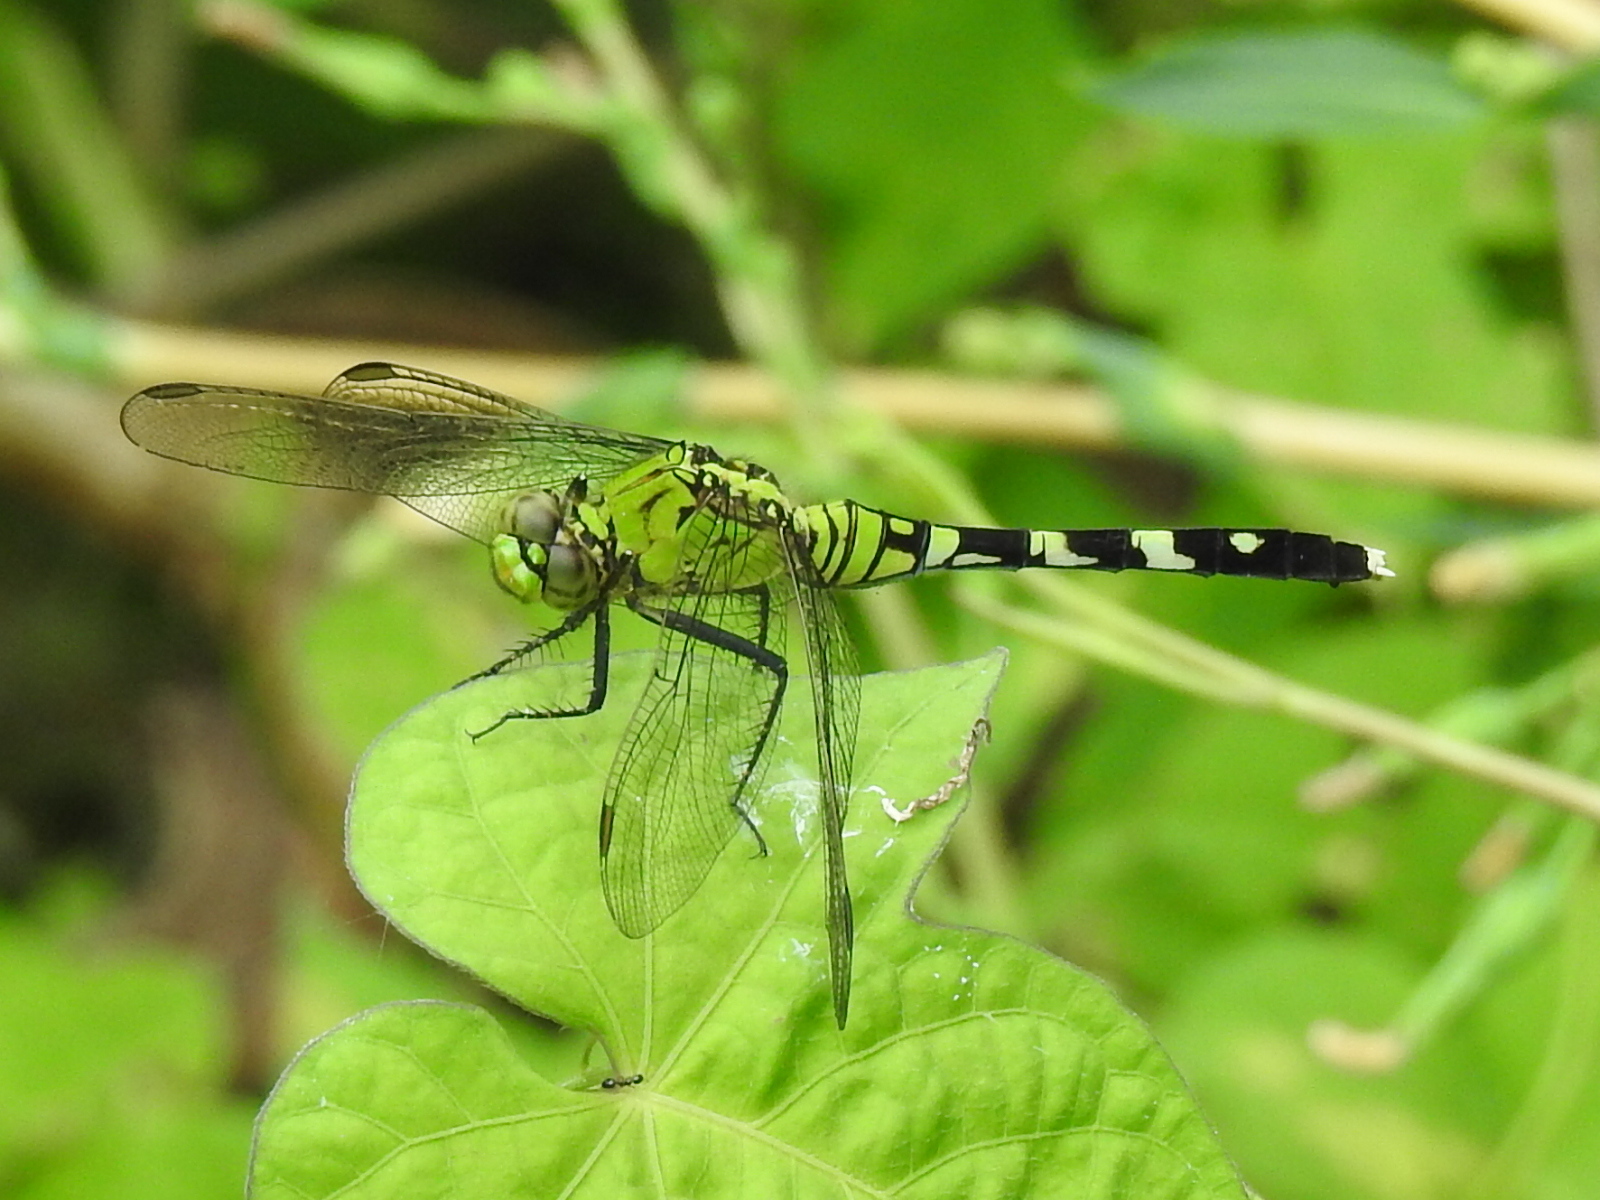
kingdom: Animalia
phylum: Arthropoda
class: Insecta
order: Odonata
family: Libellulidae
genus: Erythemis
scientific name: Erythemis simplicicollis
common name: Eastern pondhawk
